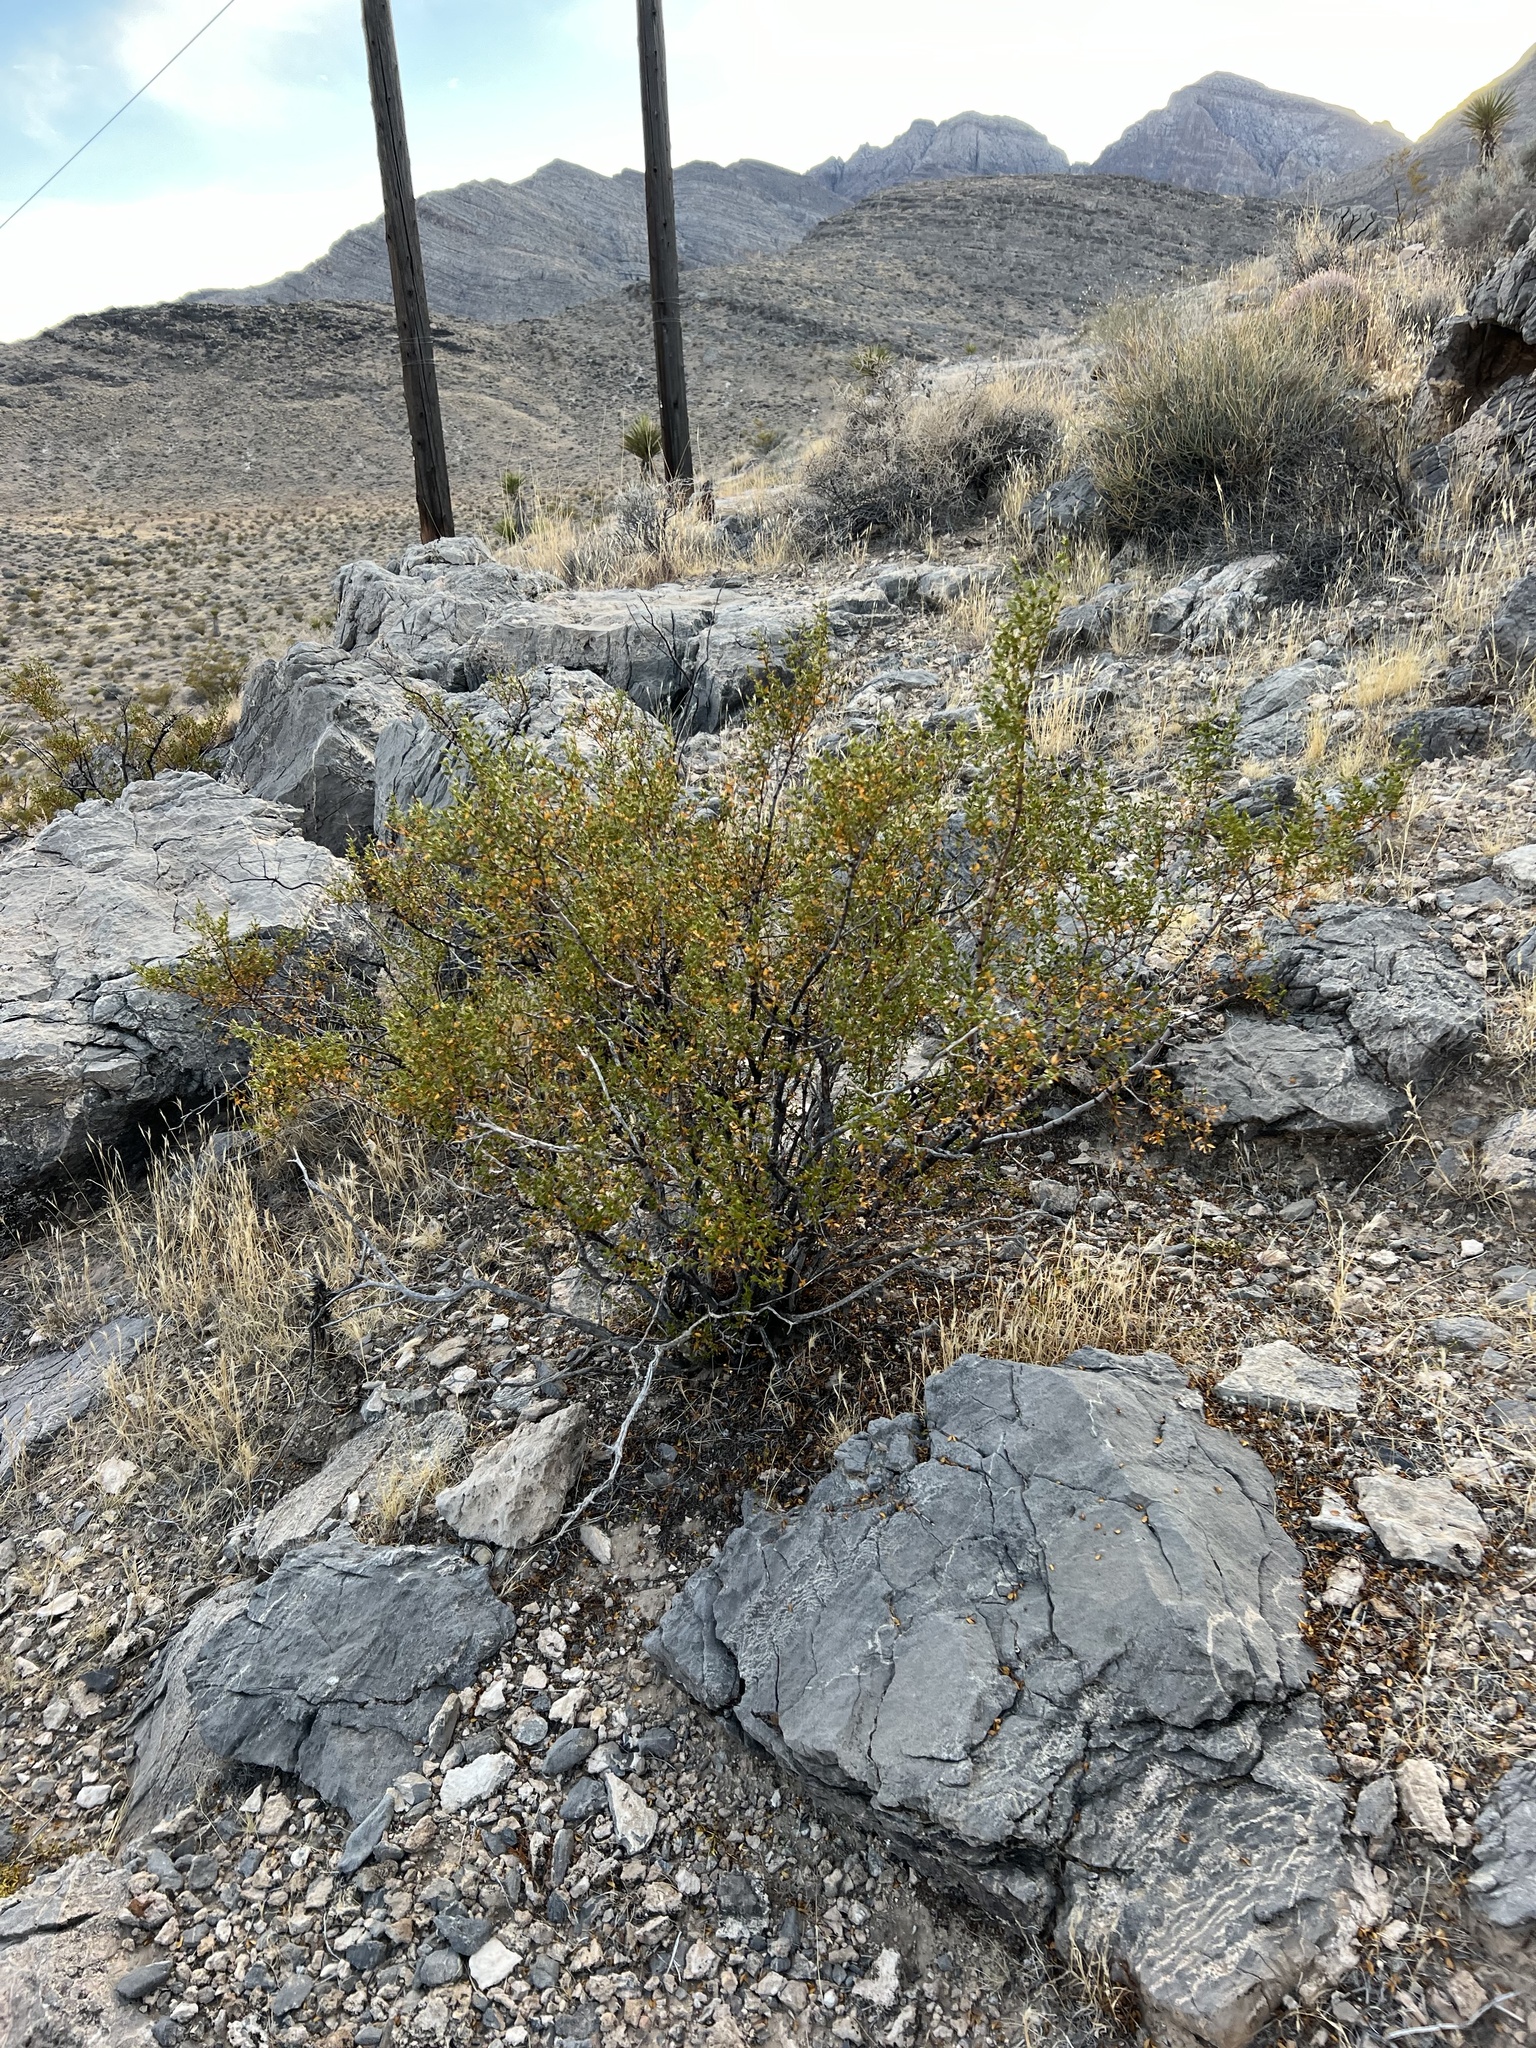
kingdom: Plantae
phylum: Tracheophyta
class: Magnoliopsida
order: Zygophyllales
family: Zygophyllaceae
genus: Larrea
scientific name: Larrea tridentata
